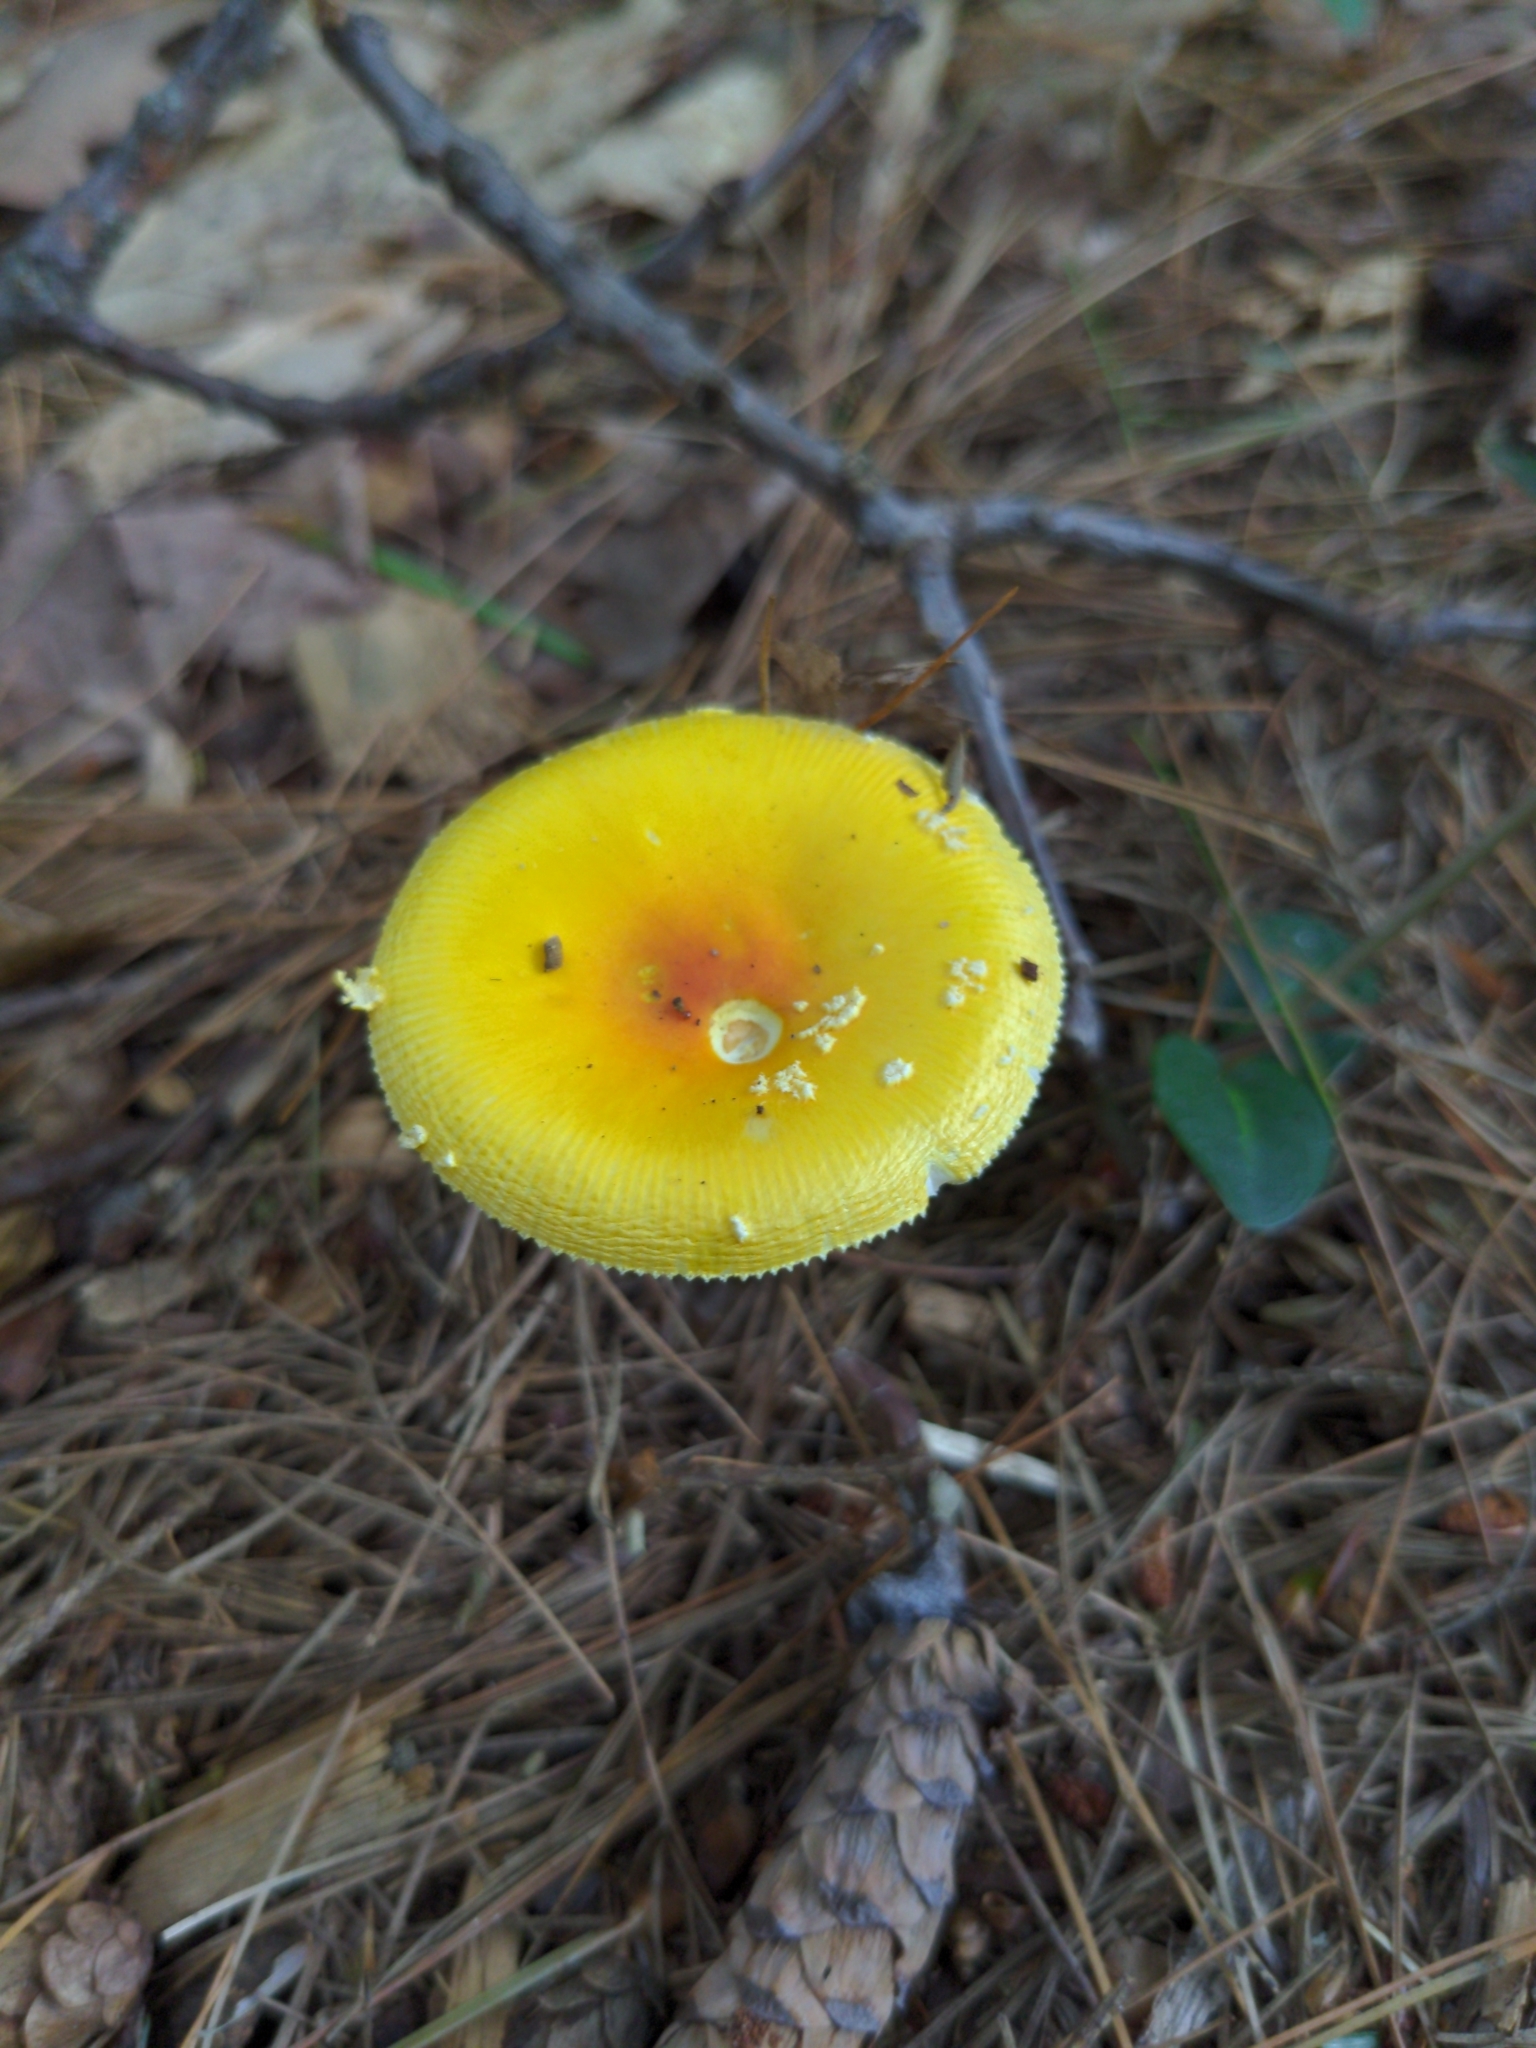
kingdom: Fungi
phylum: Basidiomycota
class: Agaricomycetes
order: Agaricales
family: Amanitaceae
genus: Amanita
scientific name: Amanita frostiana
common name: Frost's amanita
